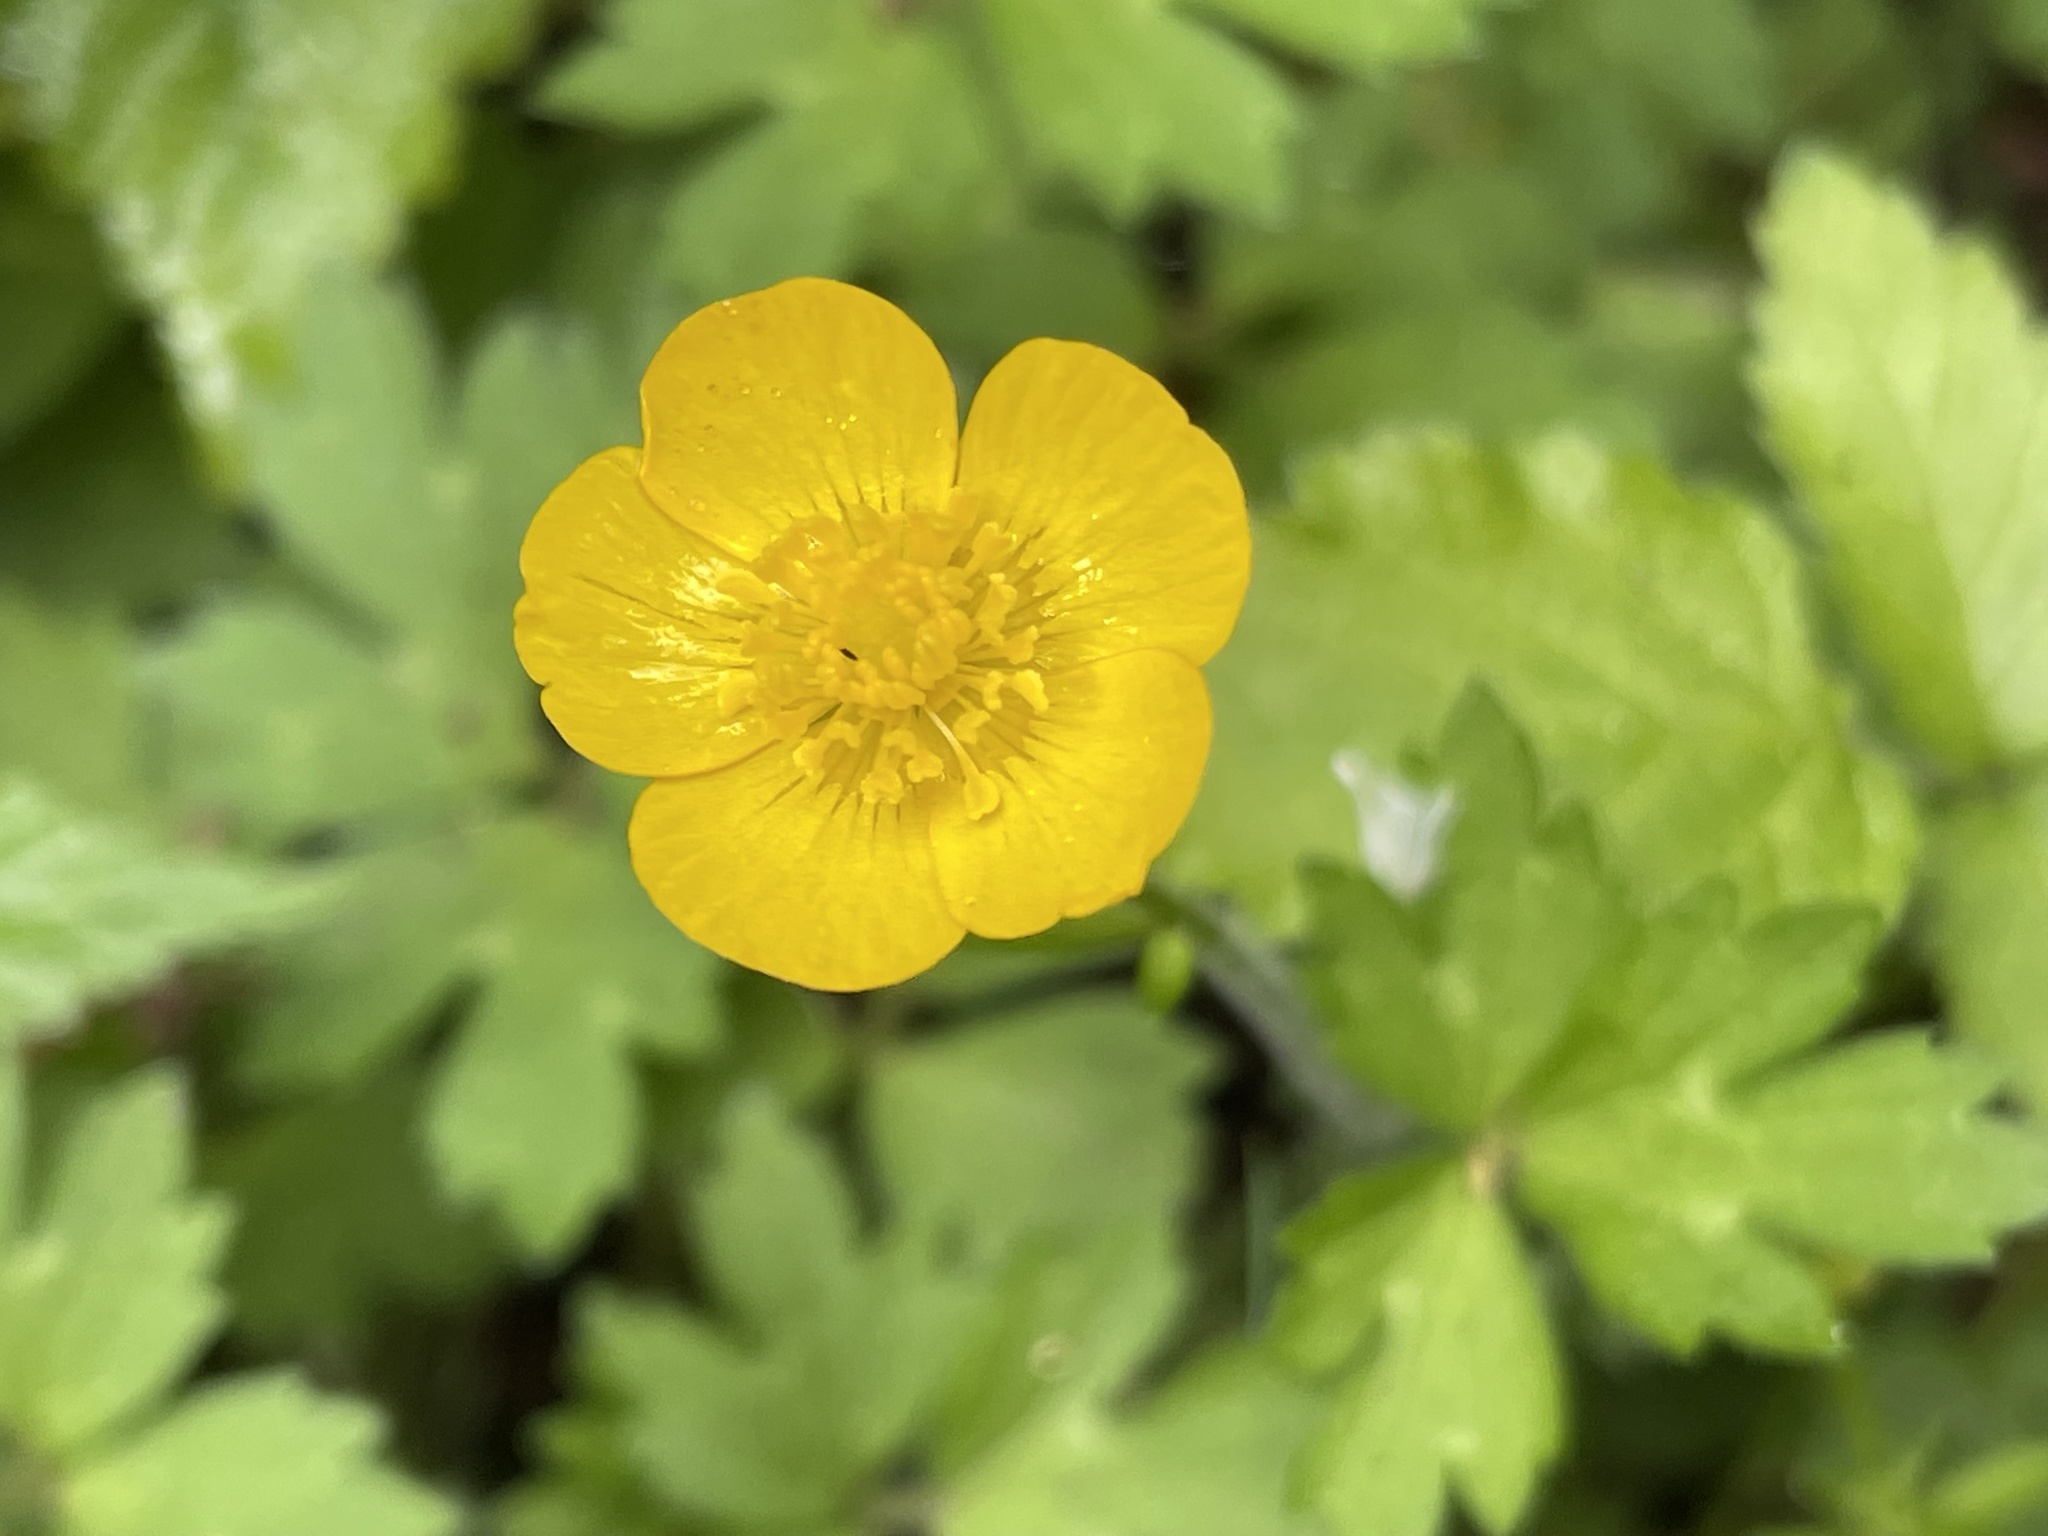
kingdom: Plantae
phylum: Tracheophyta
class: Magnoliopsida
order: Ranunculales
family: Ranunculaceae
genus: Ranunculus
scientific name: Ranunculus repens
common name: Creeping buttercup
